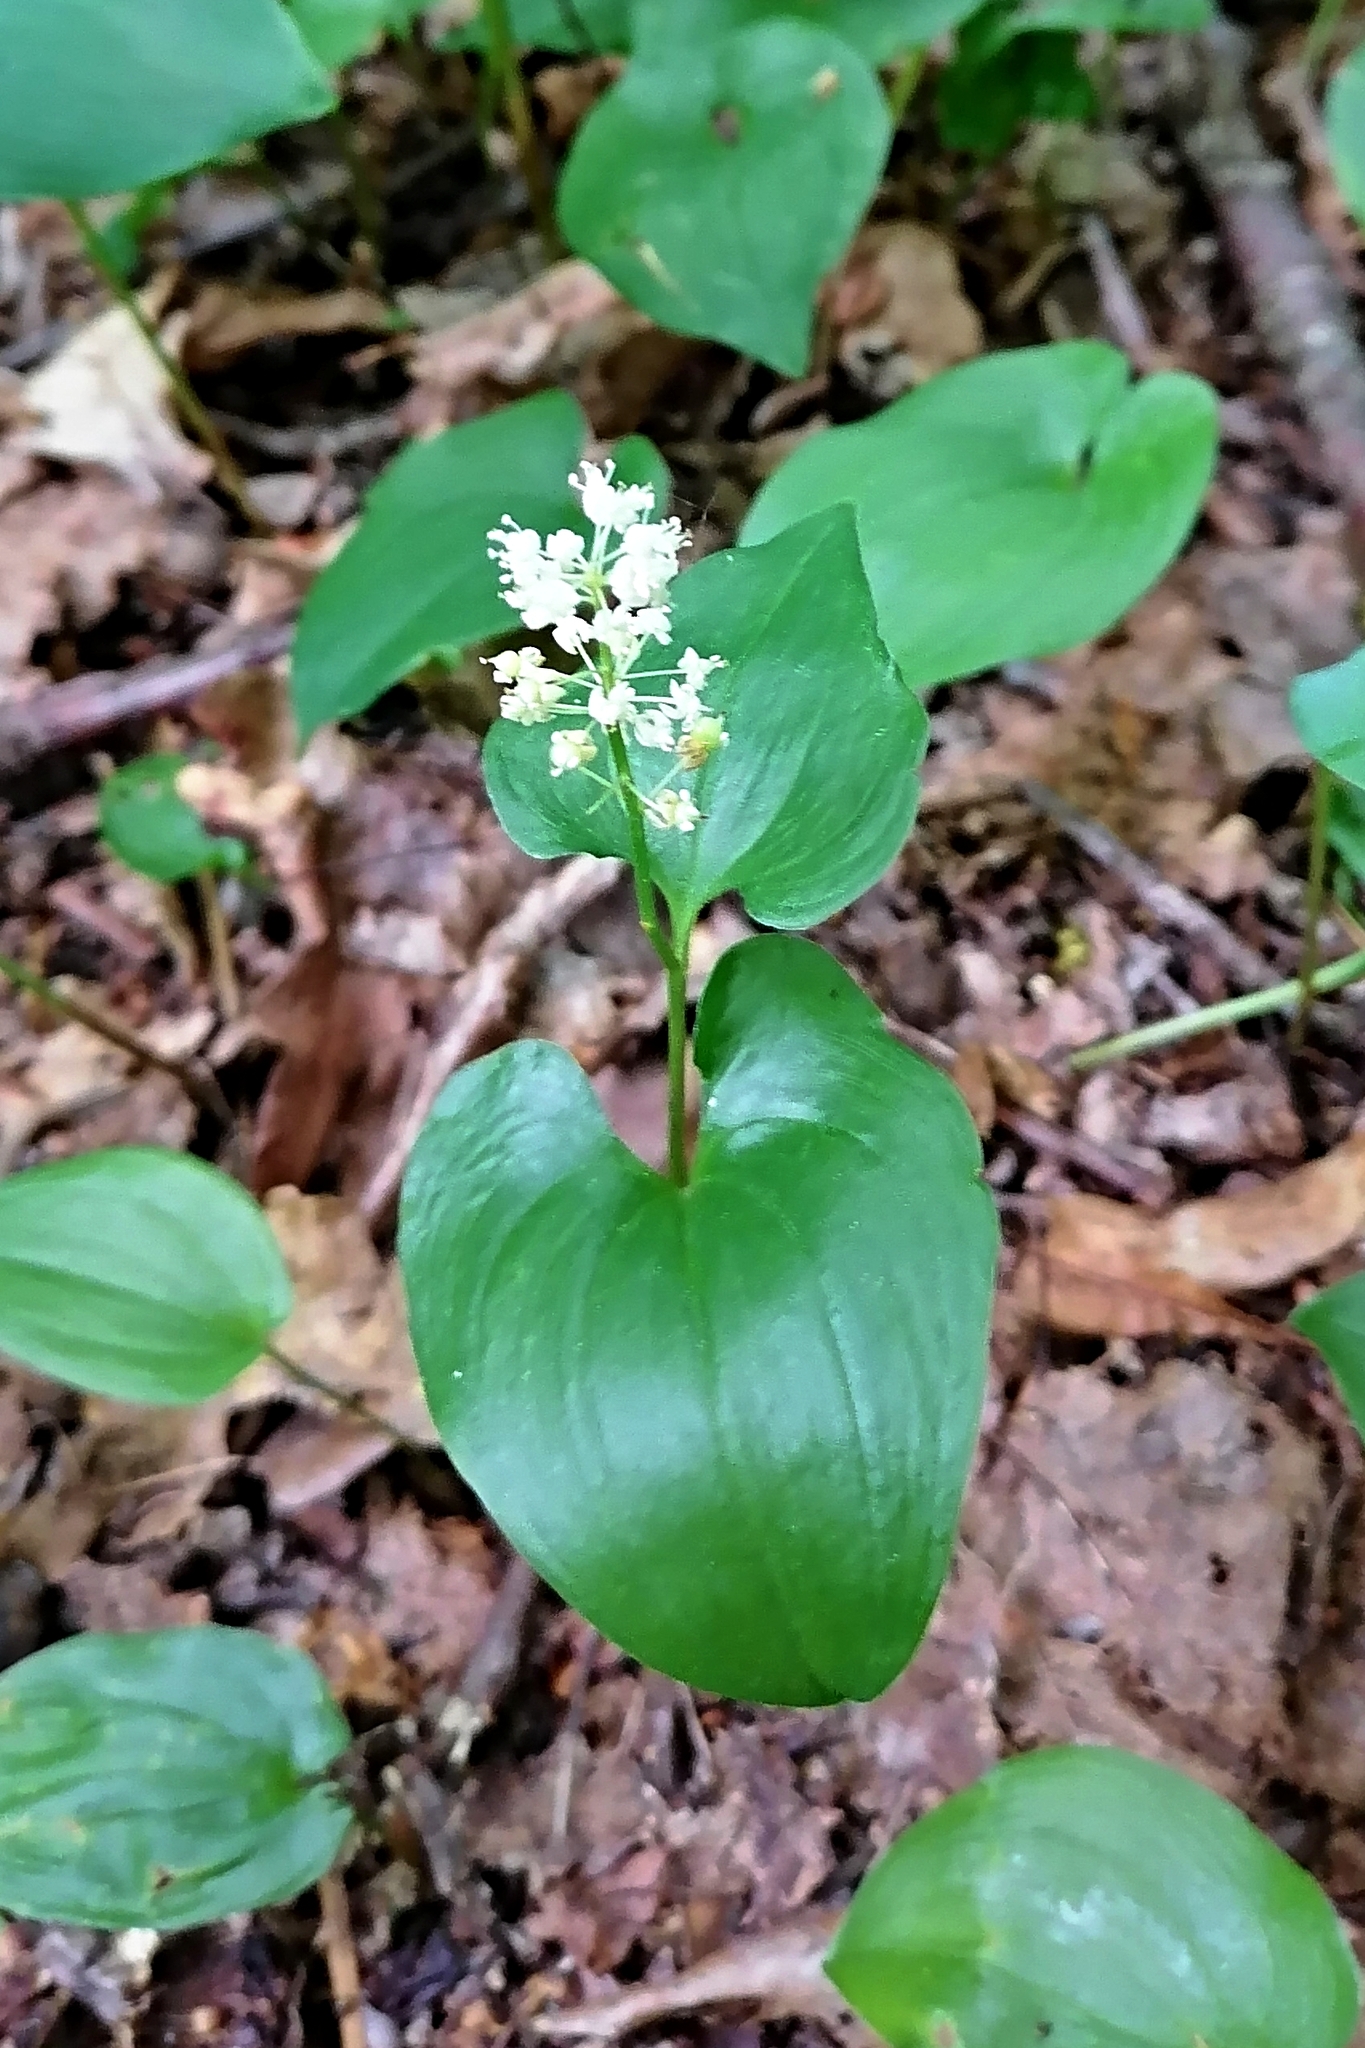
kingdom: Plantae
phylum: Tracheophyta
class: Liliopsida
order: Asparagales
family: Asparagaceae
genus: Maianthemum
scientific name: Maianthemum bifolium
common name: May lily
